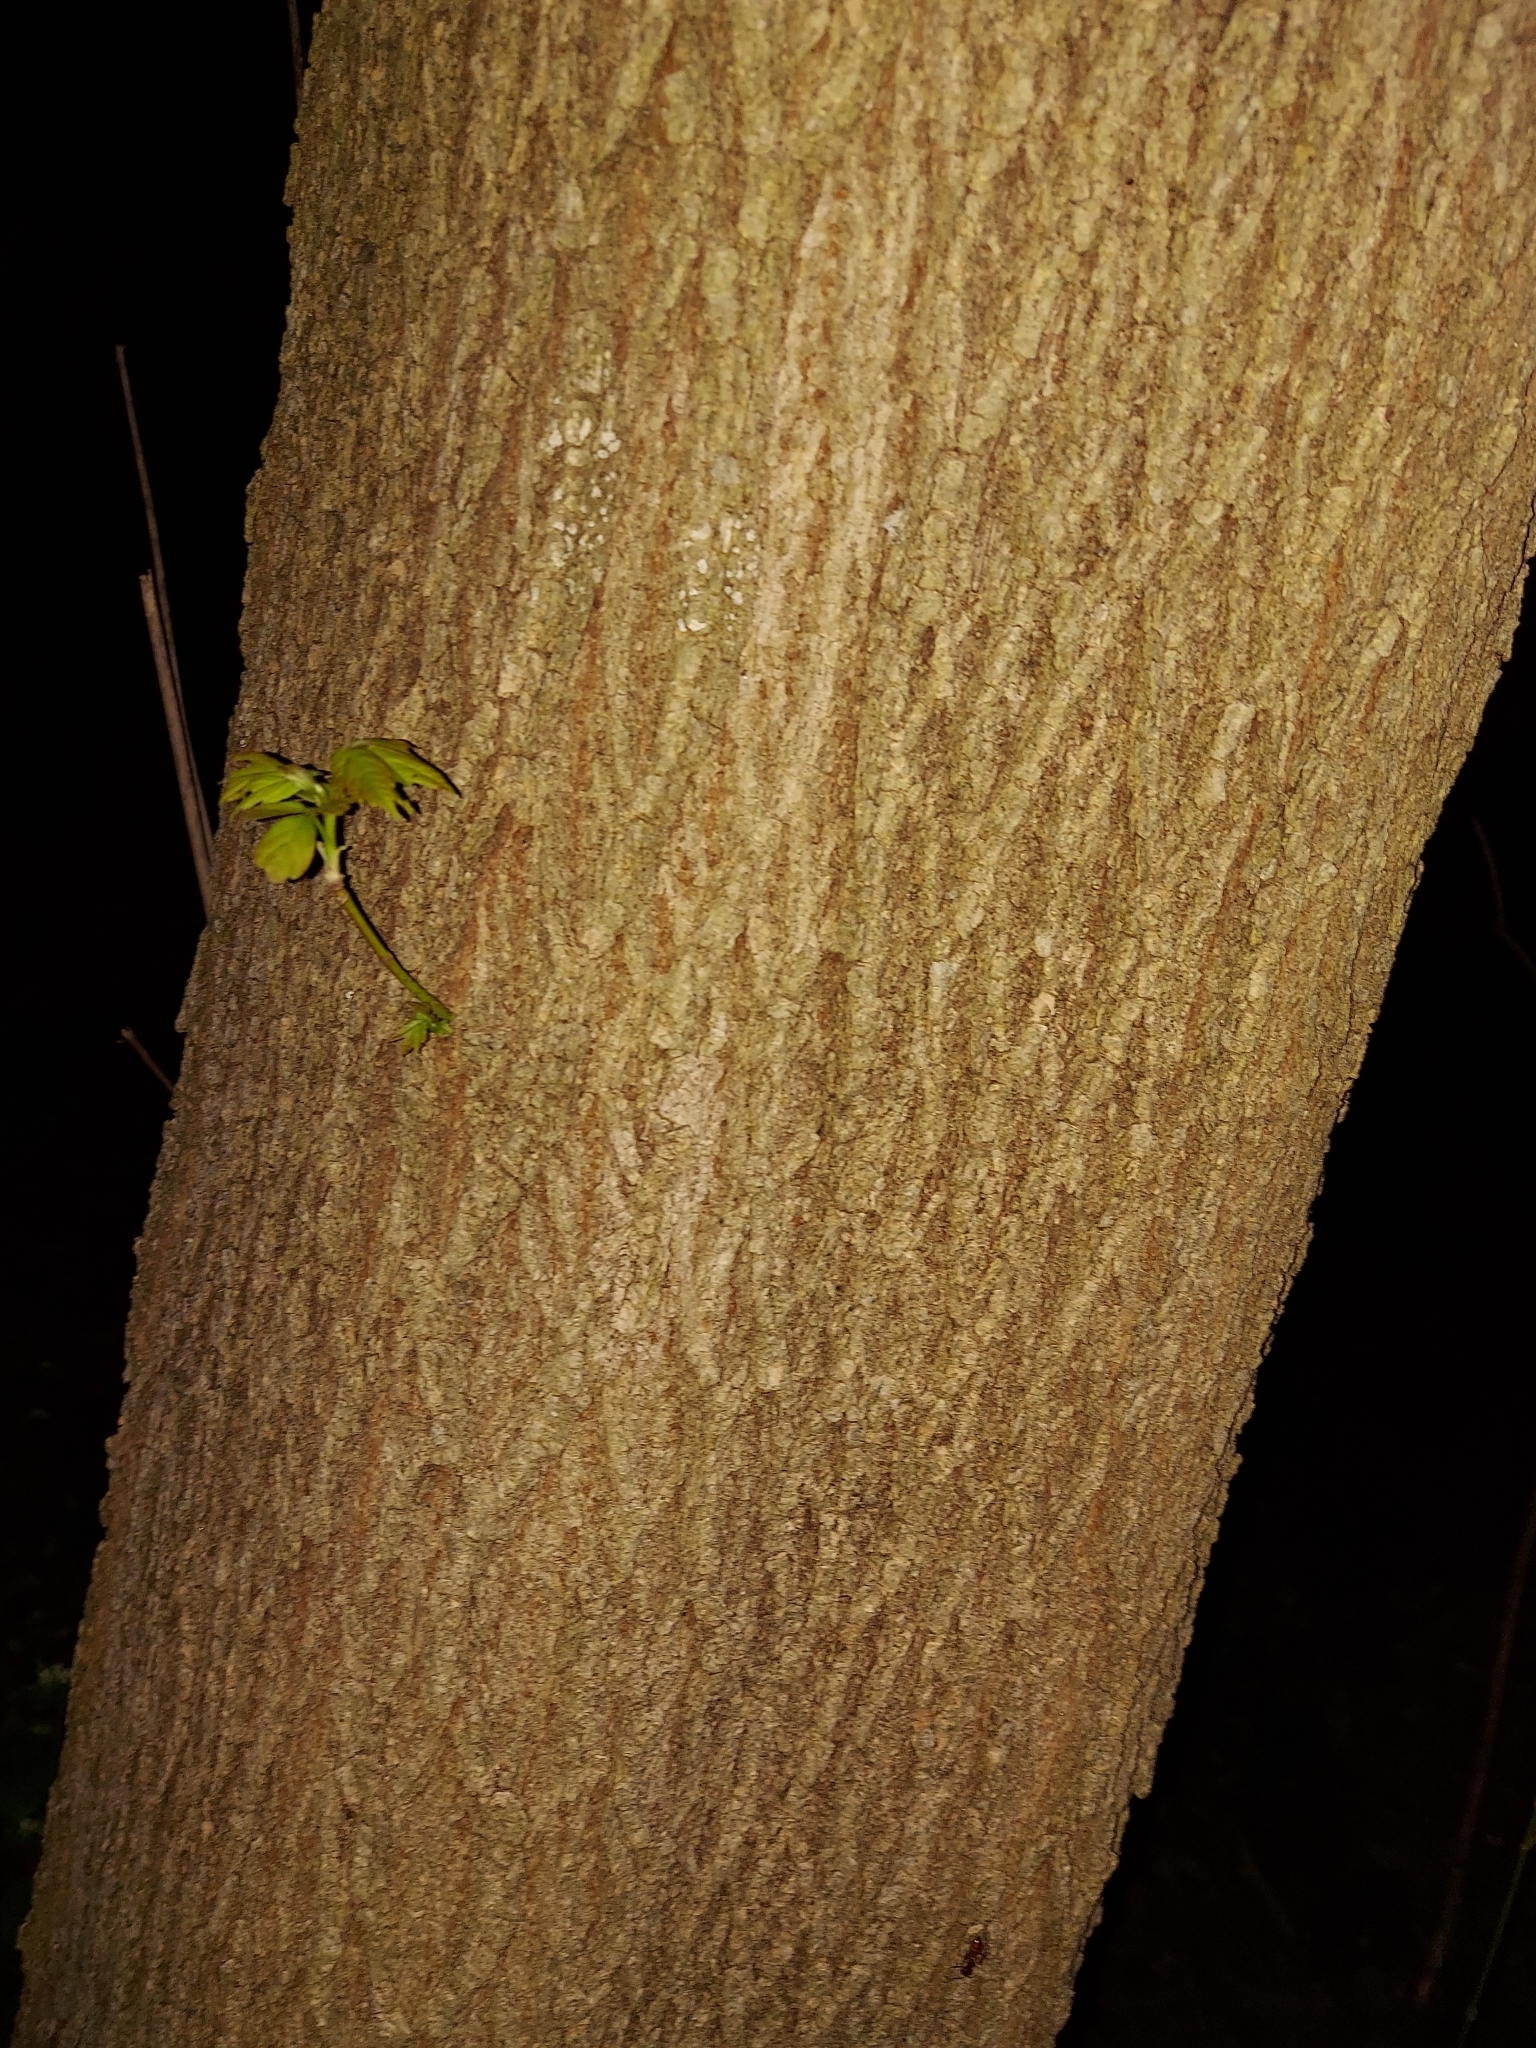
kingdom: Plantae
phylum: Tracheophyta
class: Magnoliopsida
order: Sapindales
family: Sapindaceae
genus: Acer
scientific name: Acer negundo
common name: Ashleaf maple
